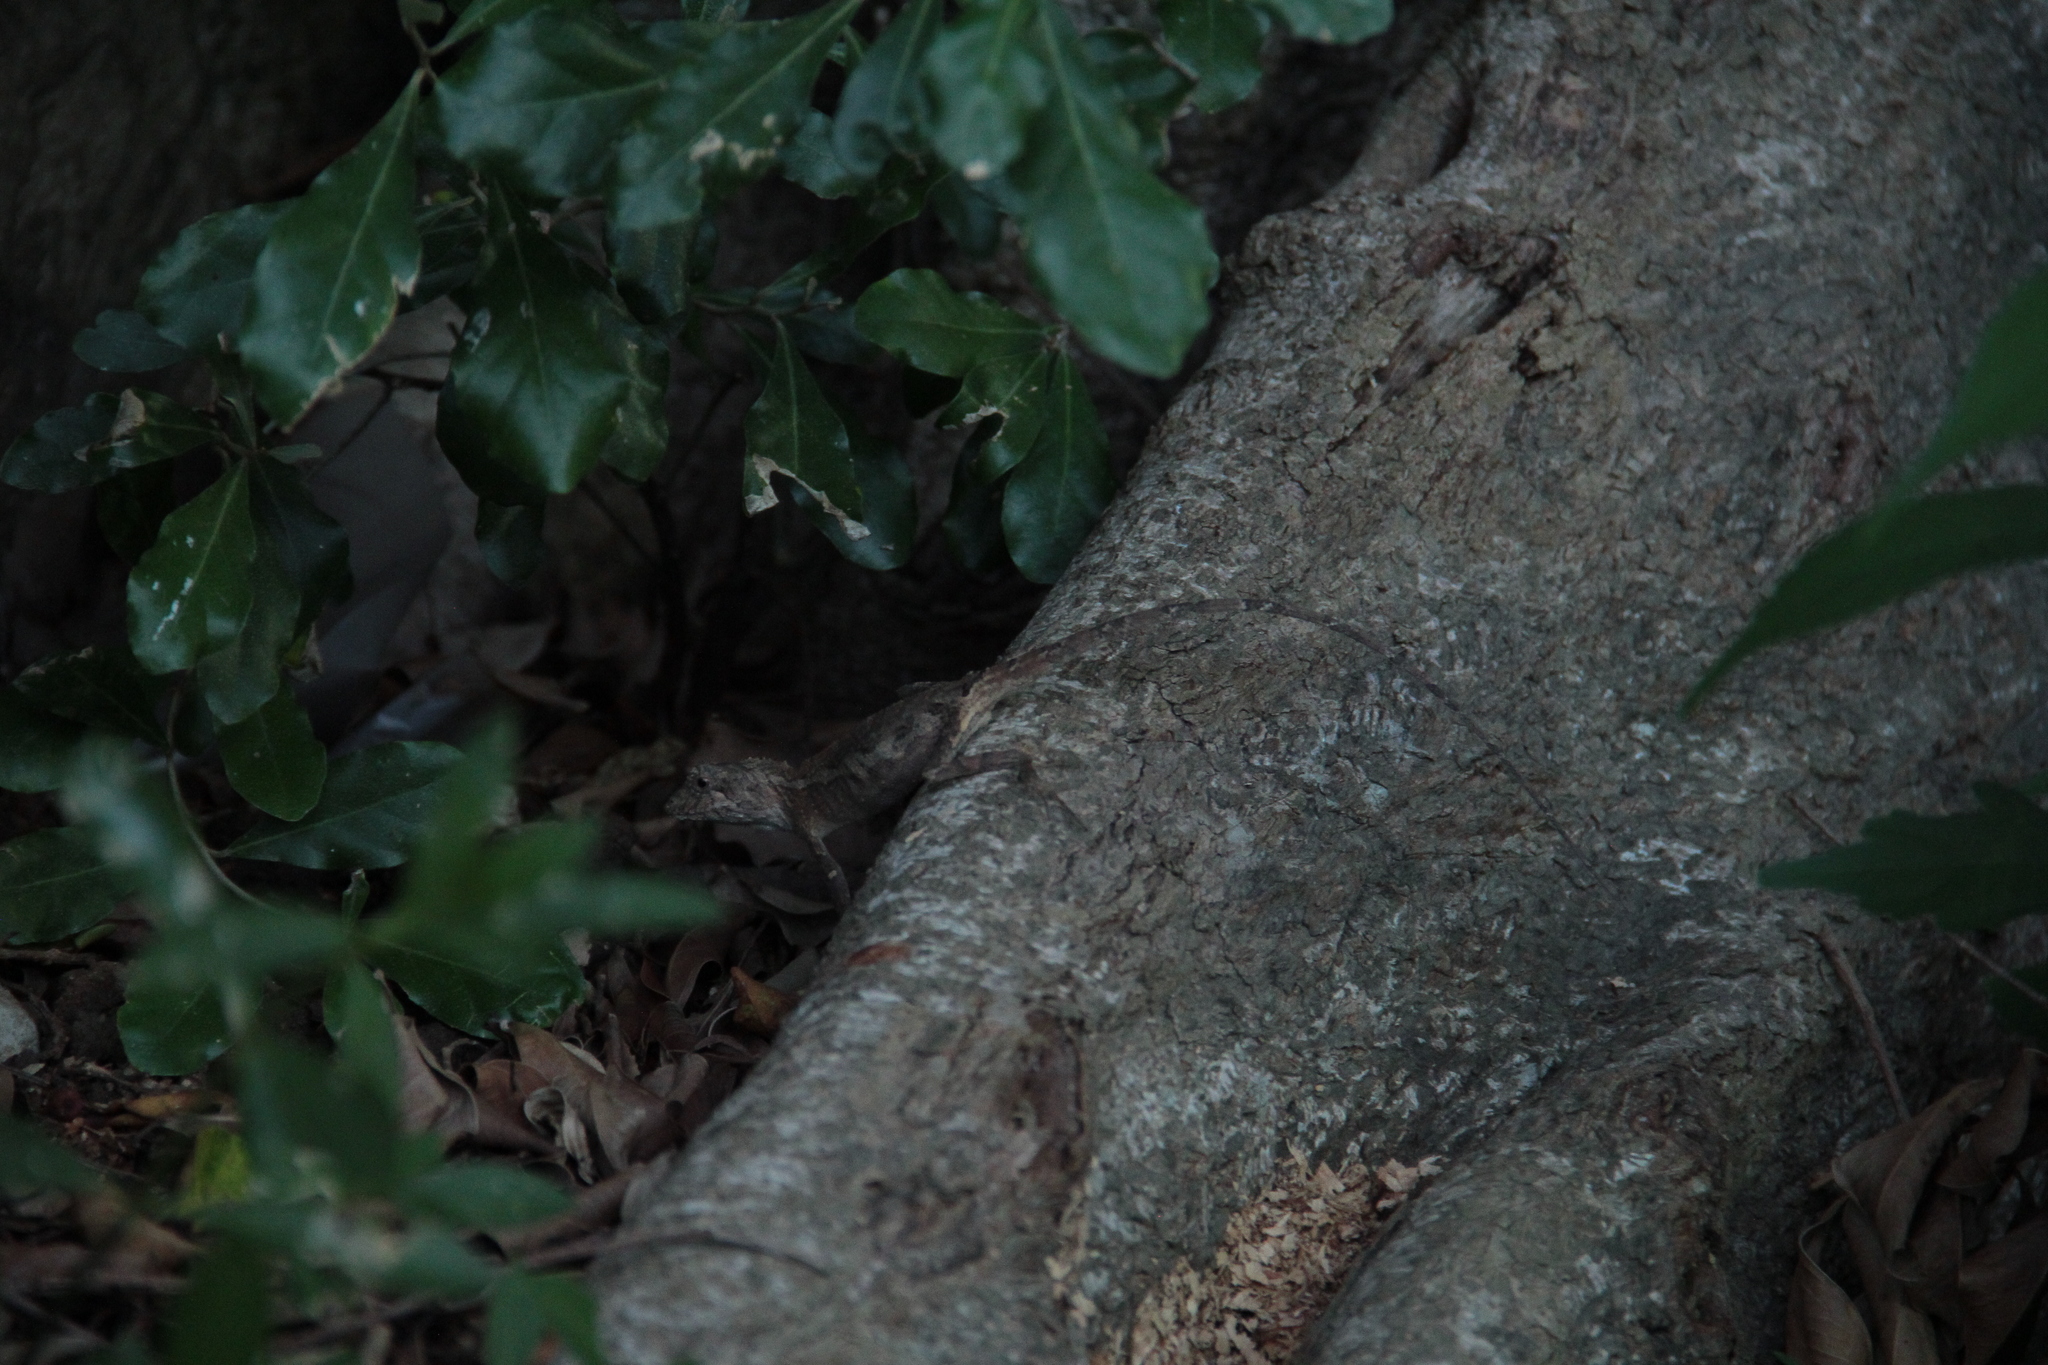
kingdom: Animalia
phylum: Chordata
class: Squamata
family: Agamidae
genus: Diploderma
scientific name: Diploderma swinhonis
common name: Taiwan japalure
